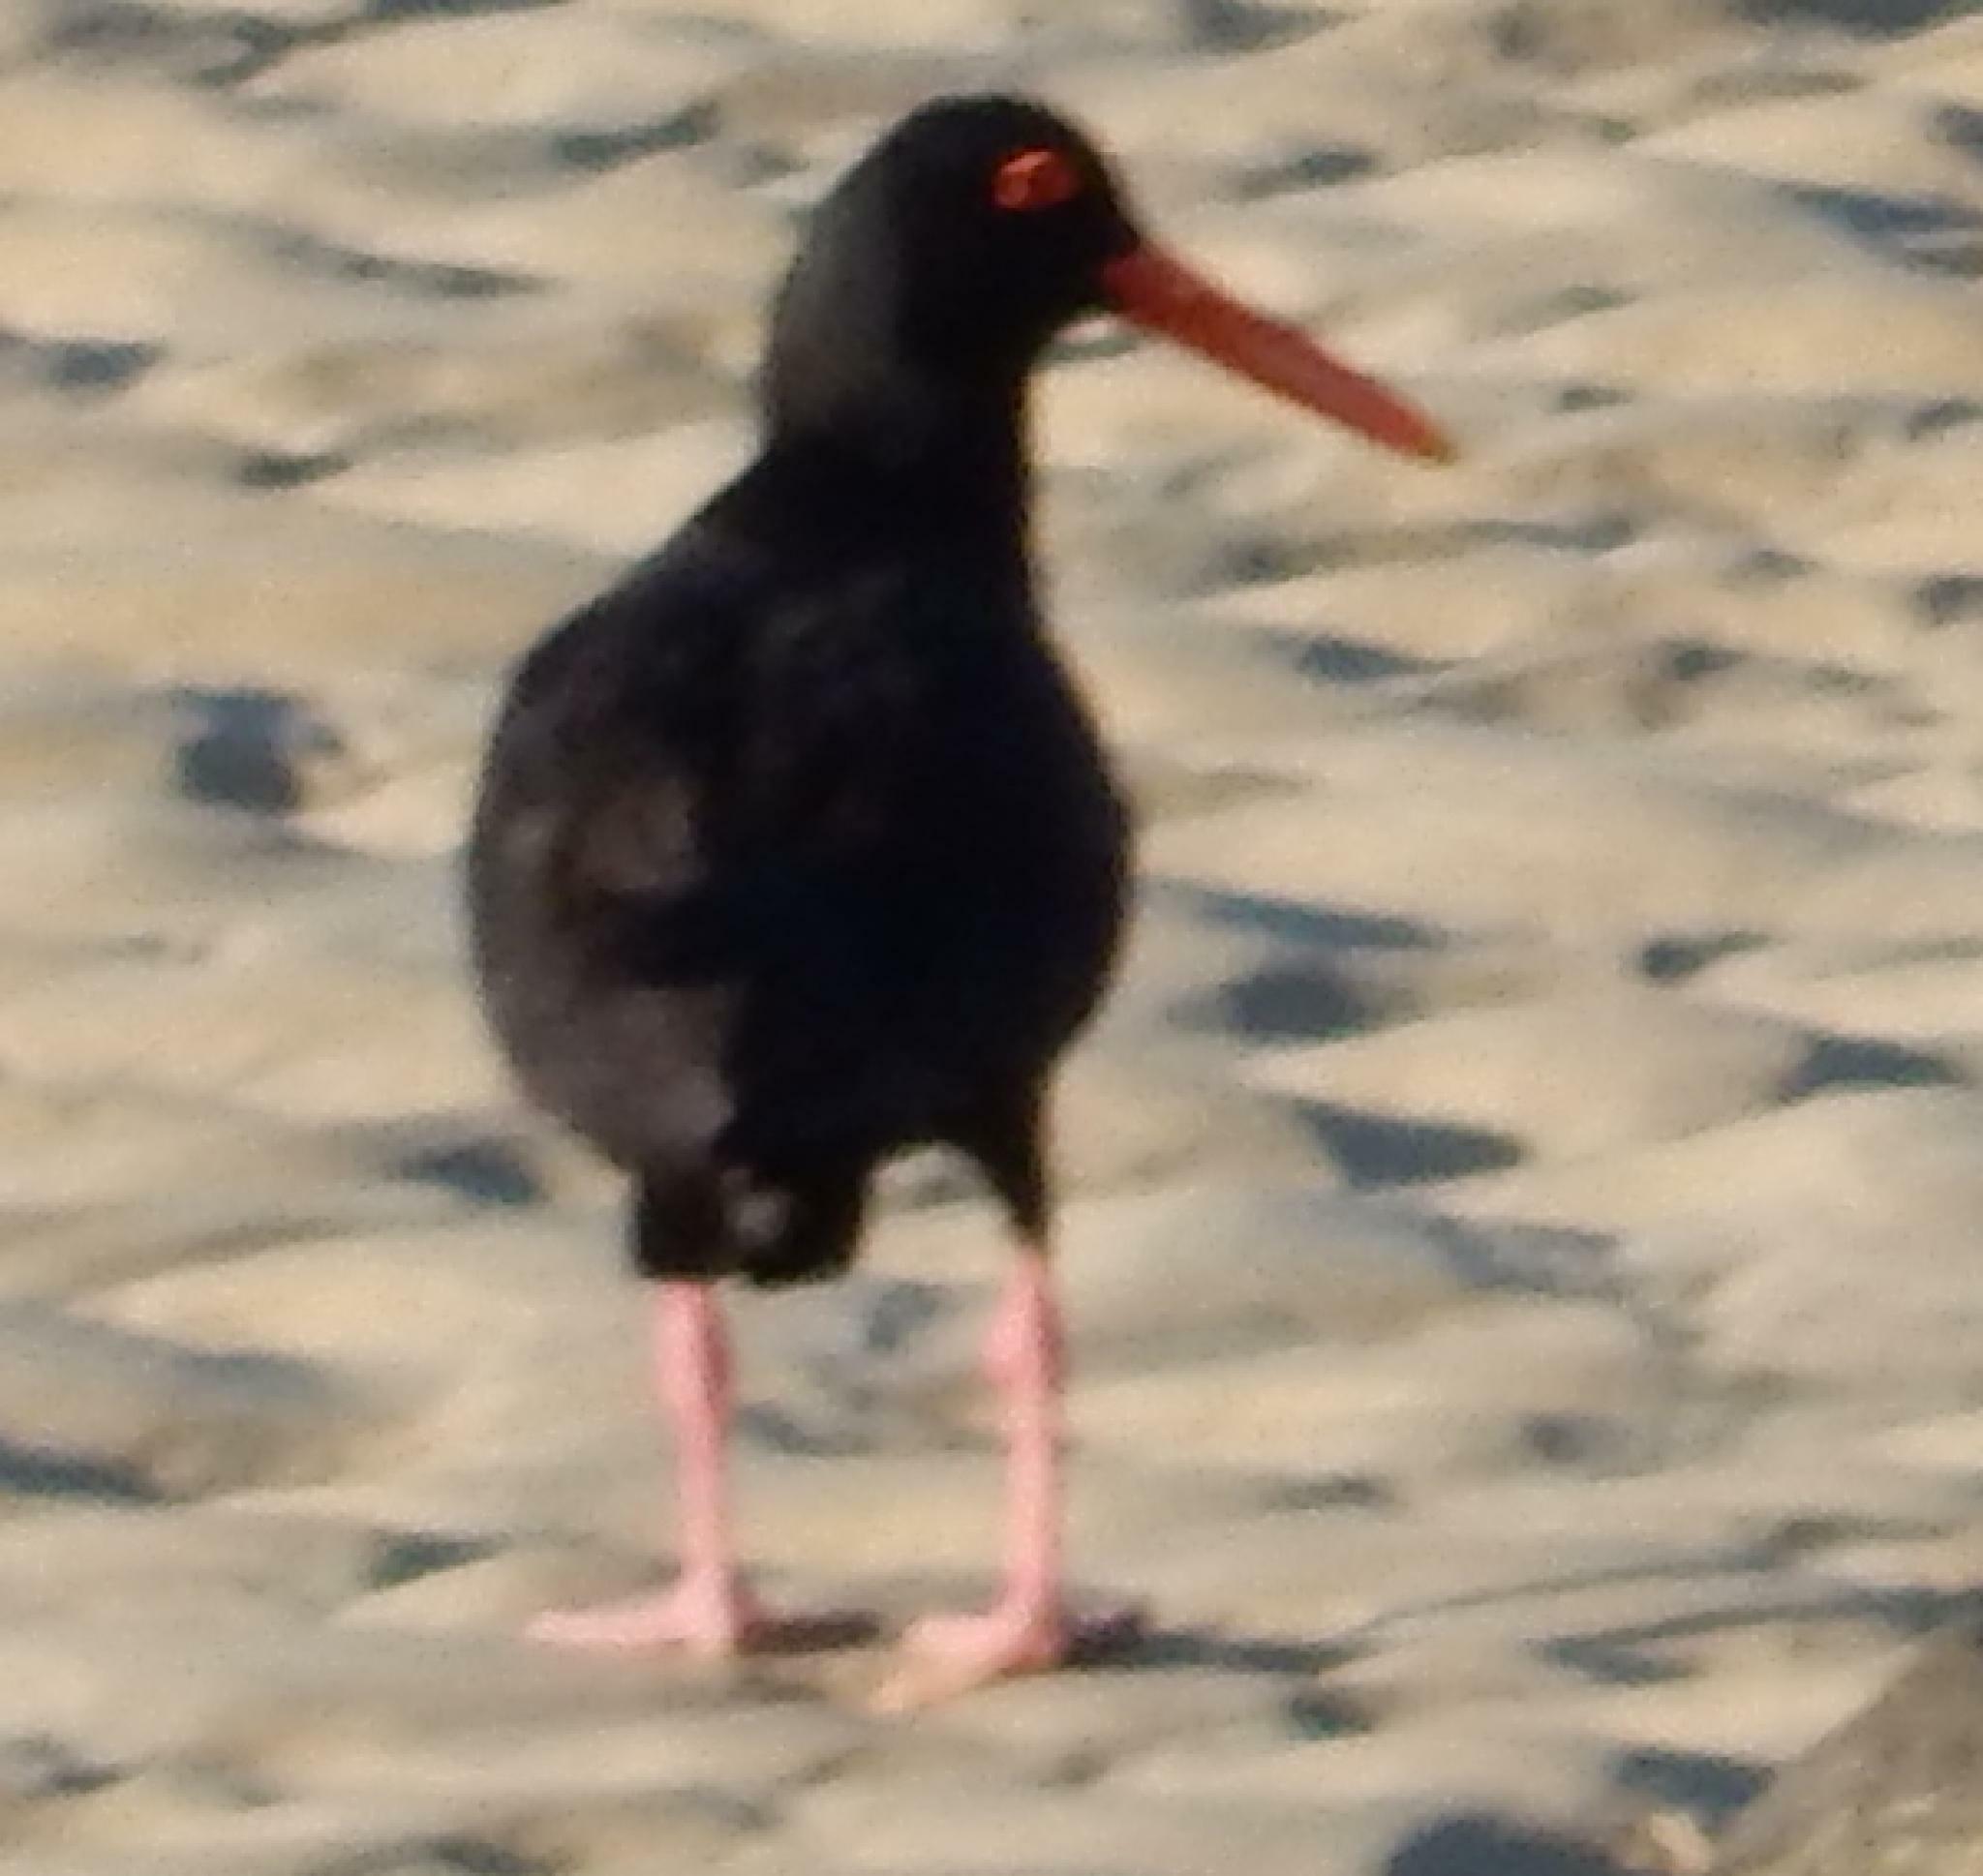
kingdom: Animalia
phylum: Chordata
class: Aves
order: Charadriiformes
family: Haematopodidae
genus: Haematopus
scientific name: Haematopus moquini
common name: African oystercatcher
